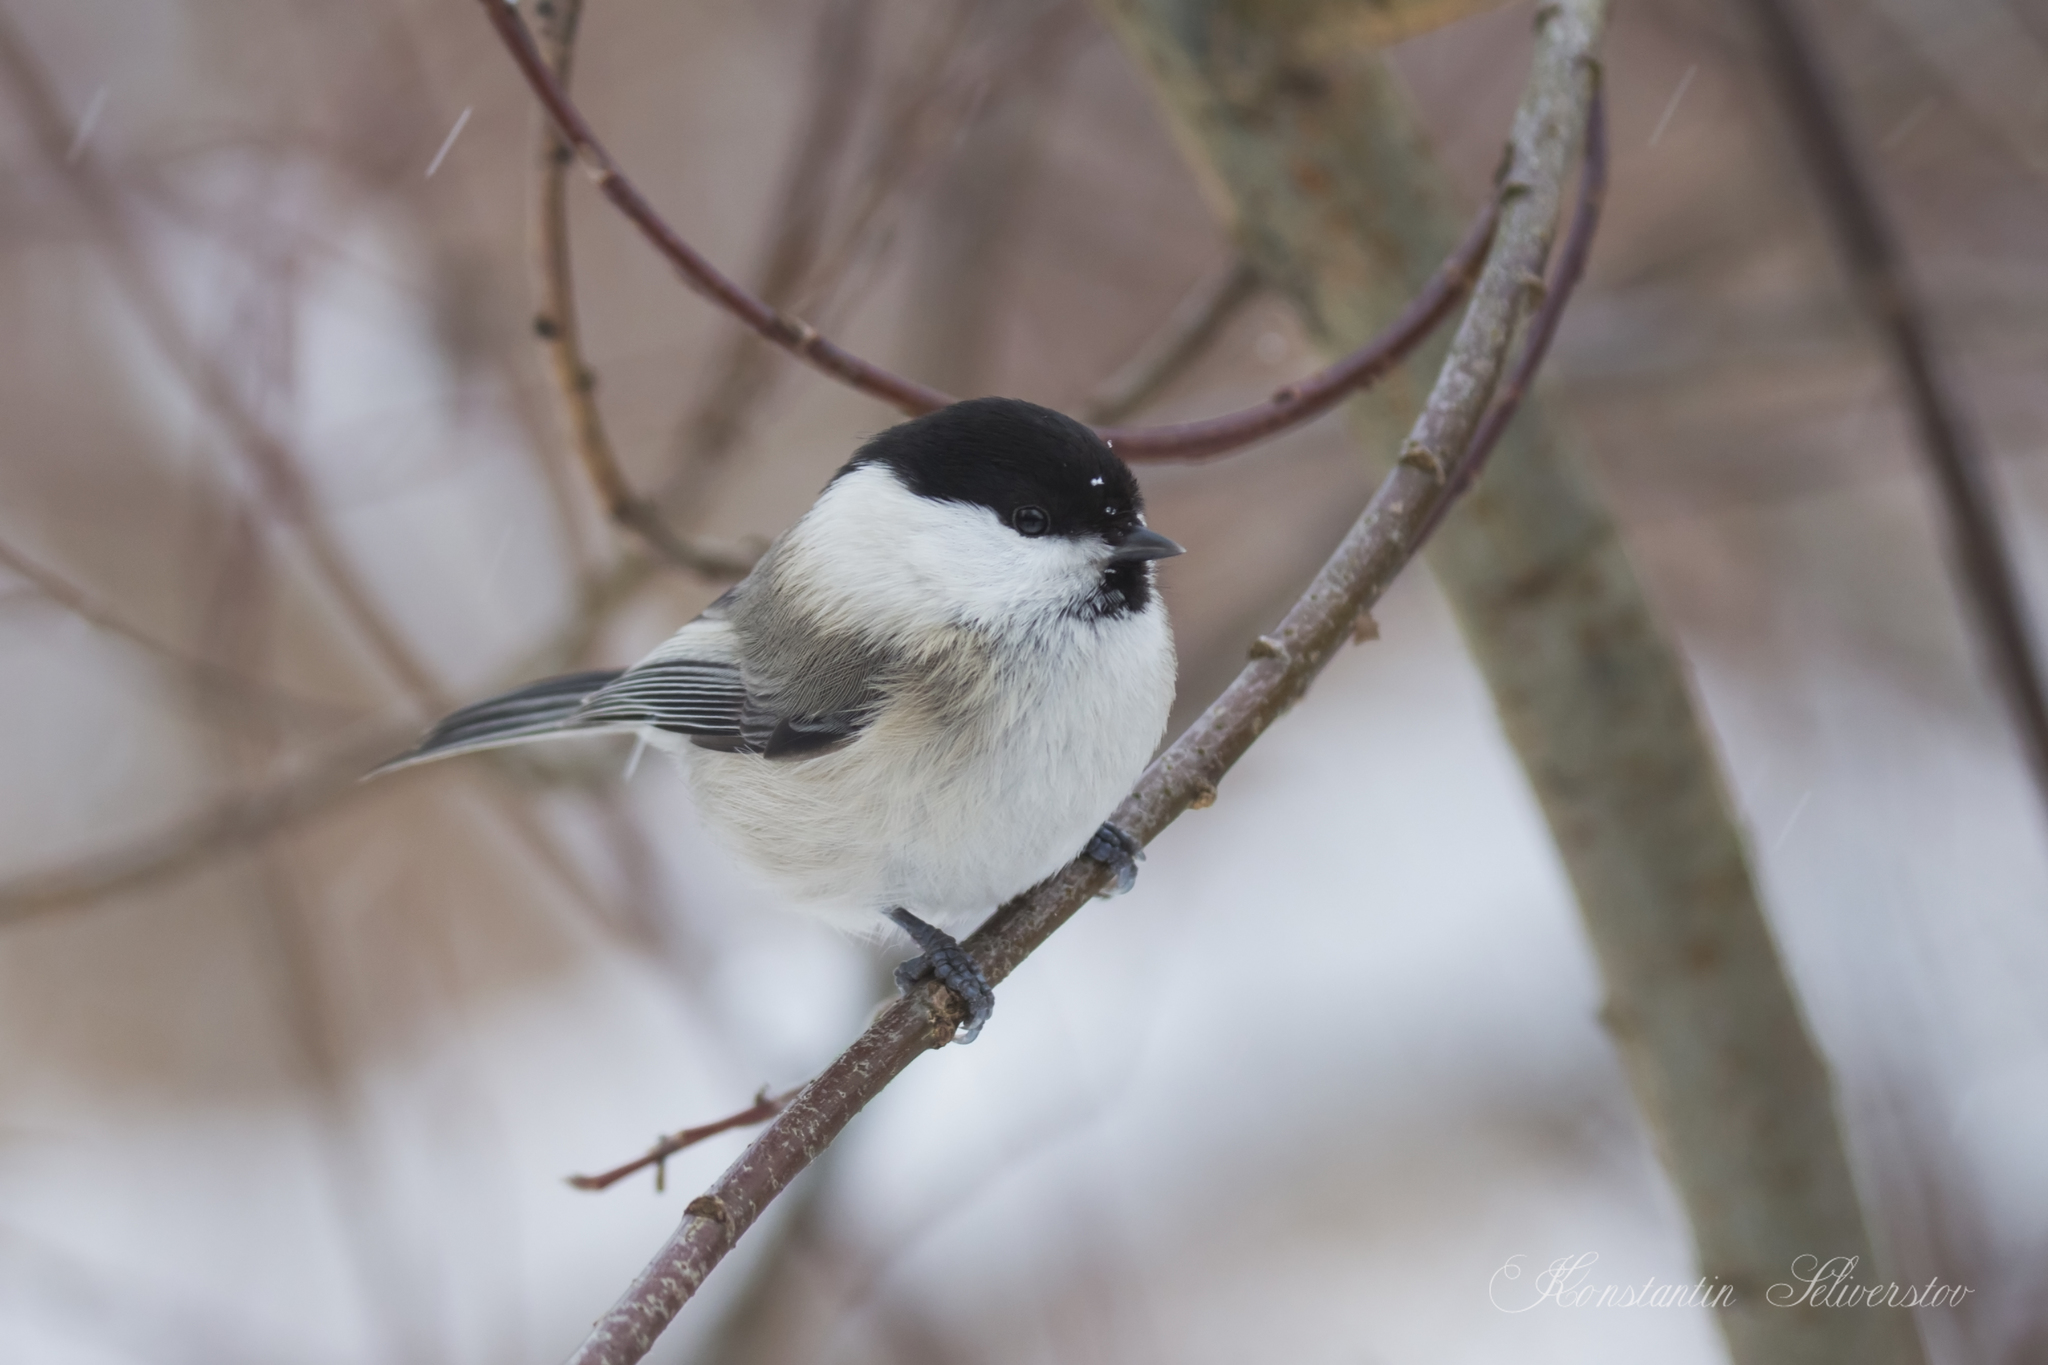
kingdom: Animalia
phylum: Chordata
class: Aves
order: Passeriformes
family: Paridae
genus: Poecile
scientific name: Poecile montanus
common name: Willow tit
